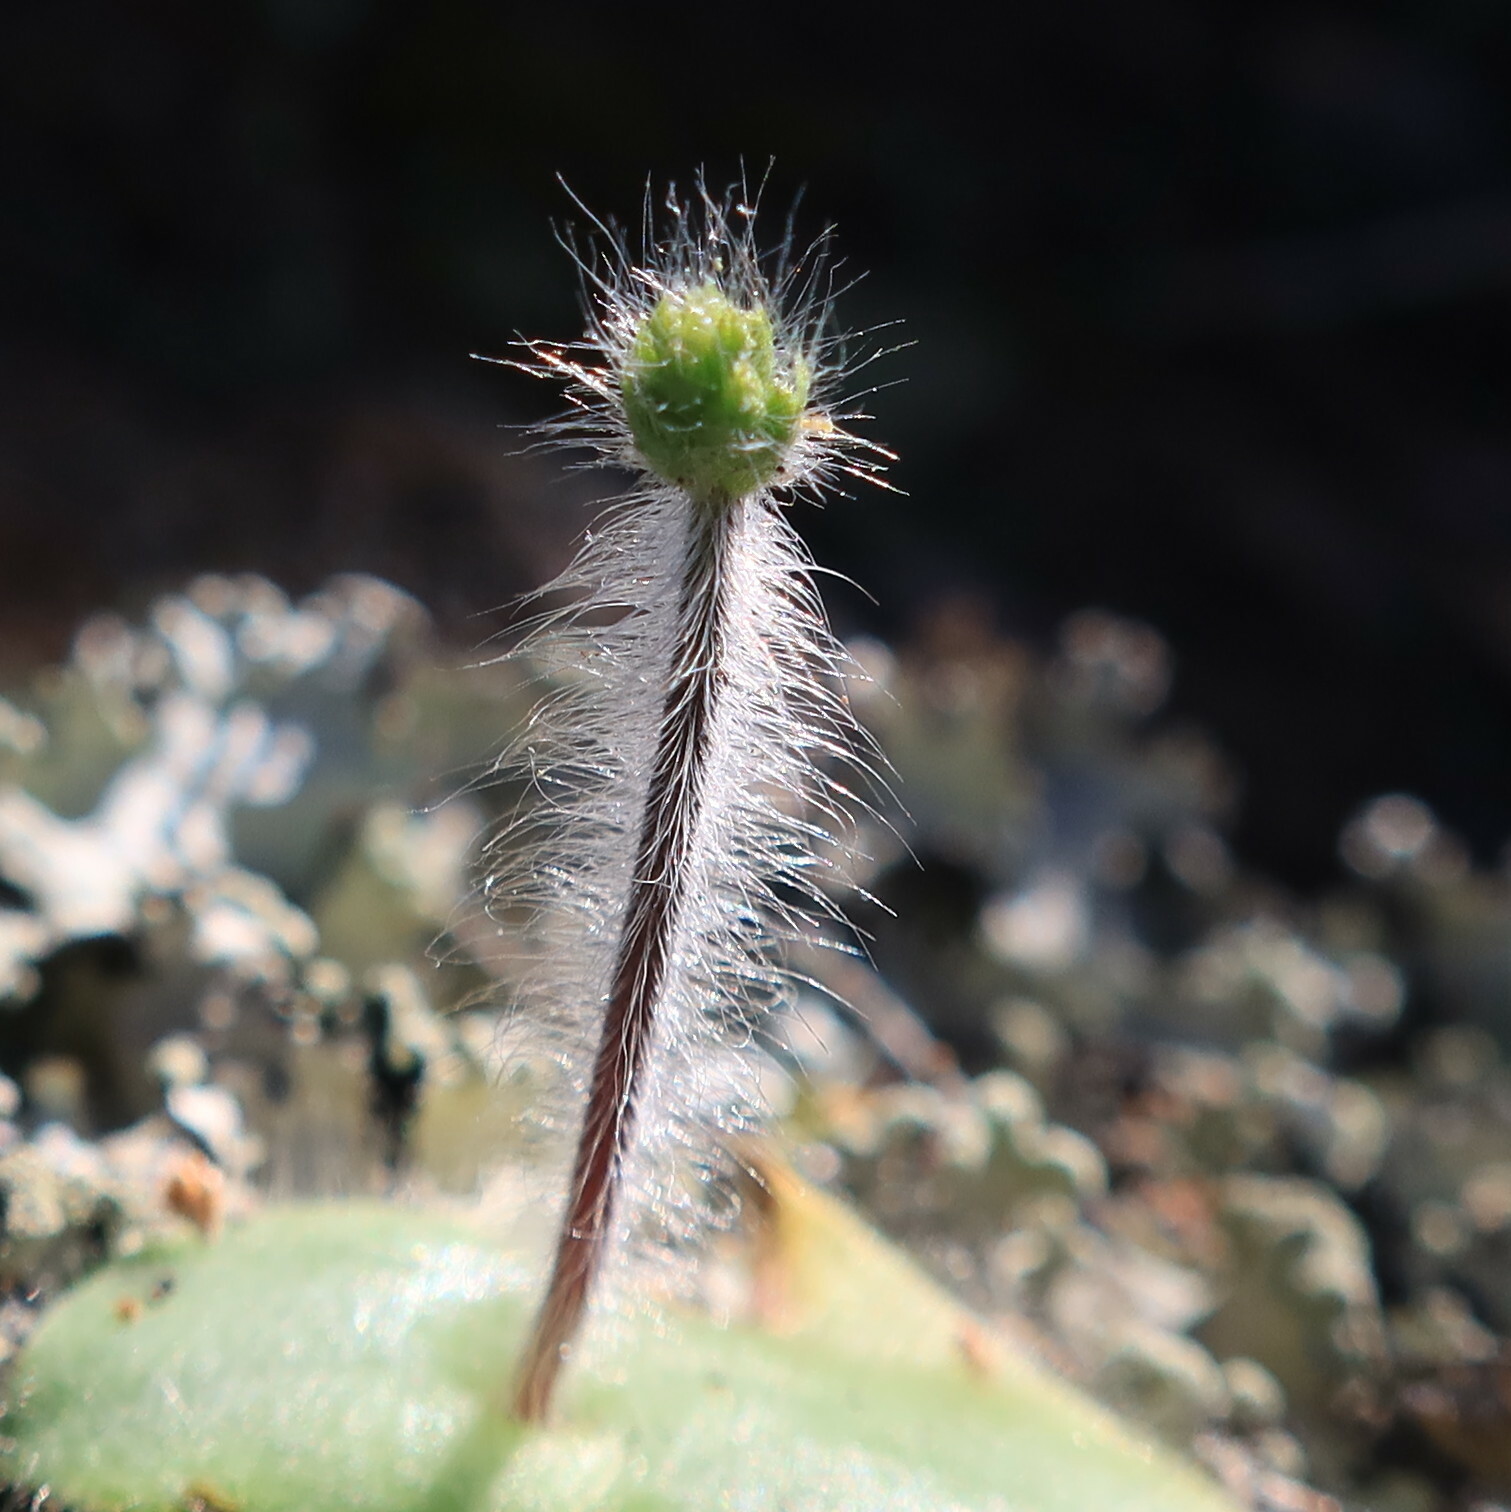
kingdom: Plantae
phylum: Tracheophyta
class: Liliopsida
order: Asparagales
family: Orchidaceae
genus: Holothrix
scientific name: Holothrix villosa
